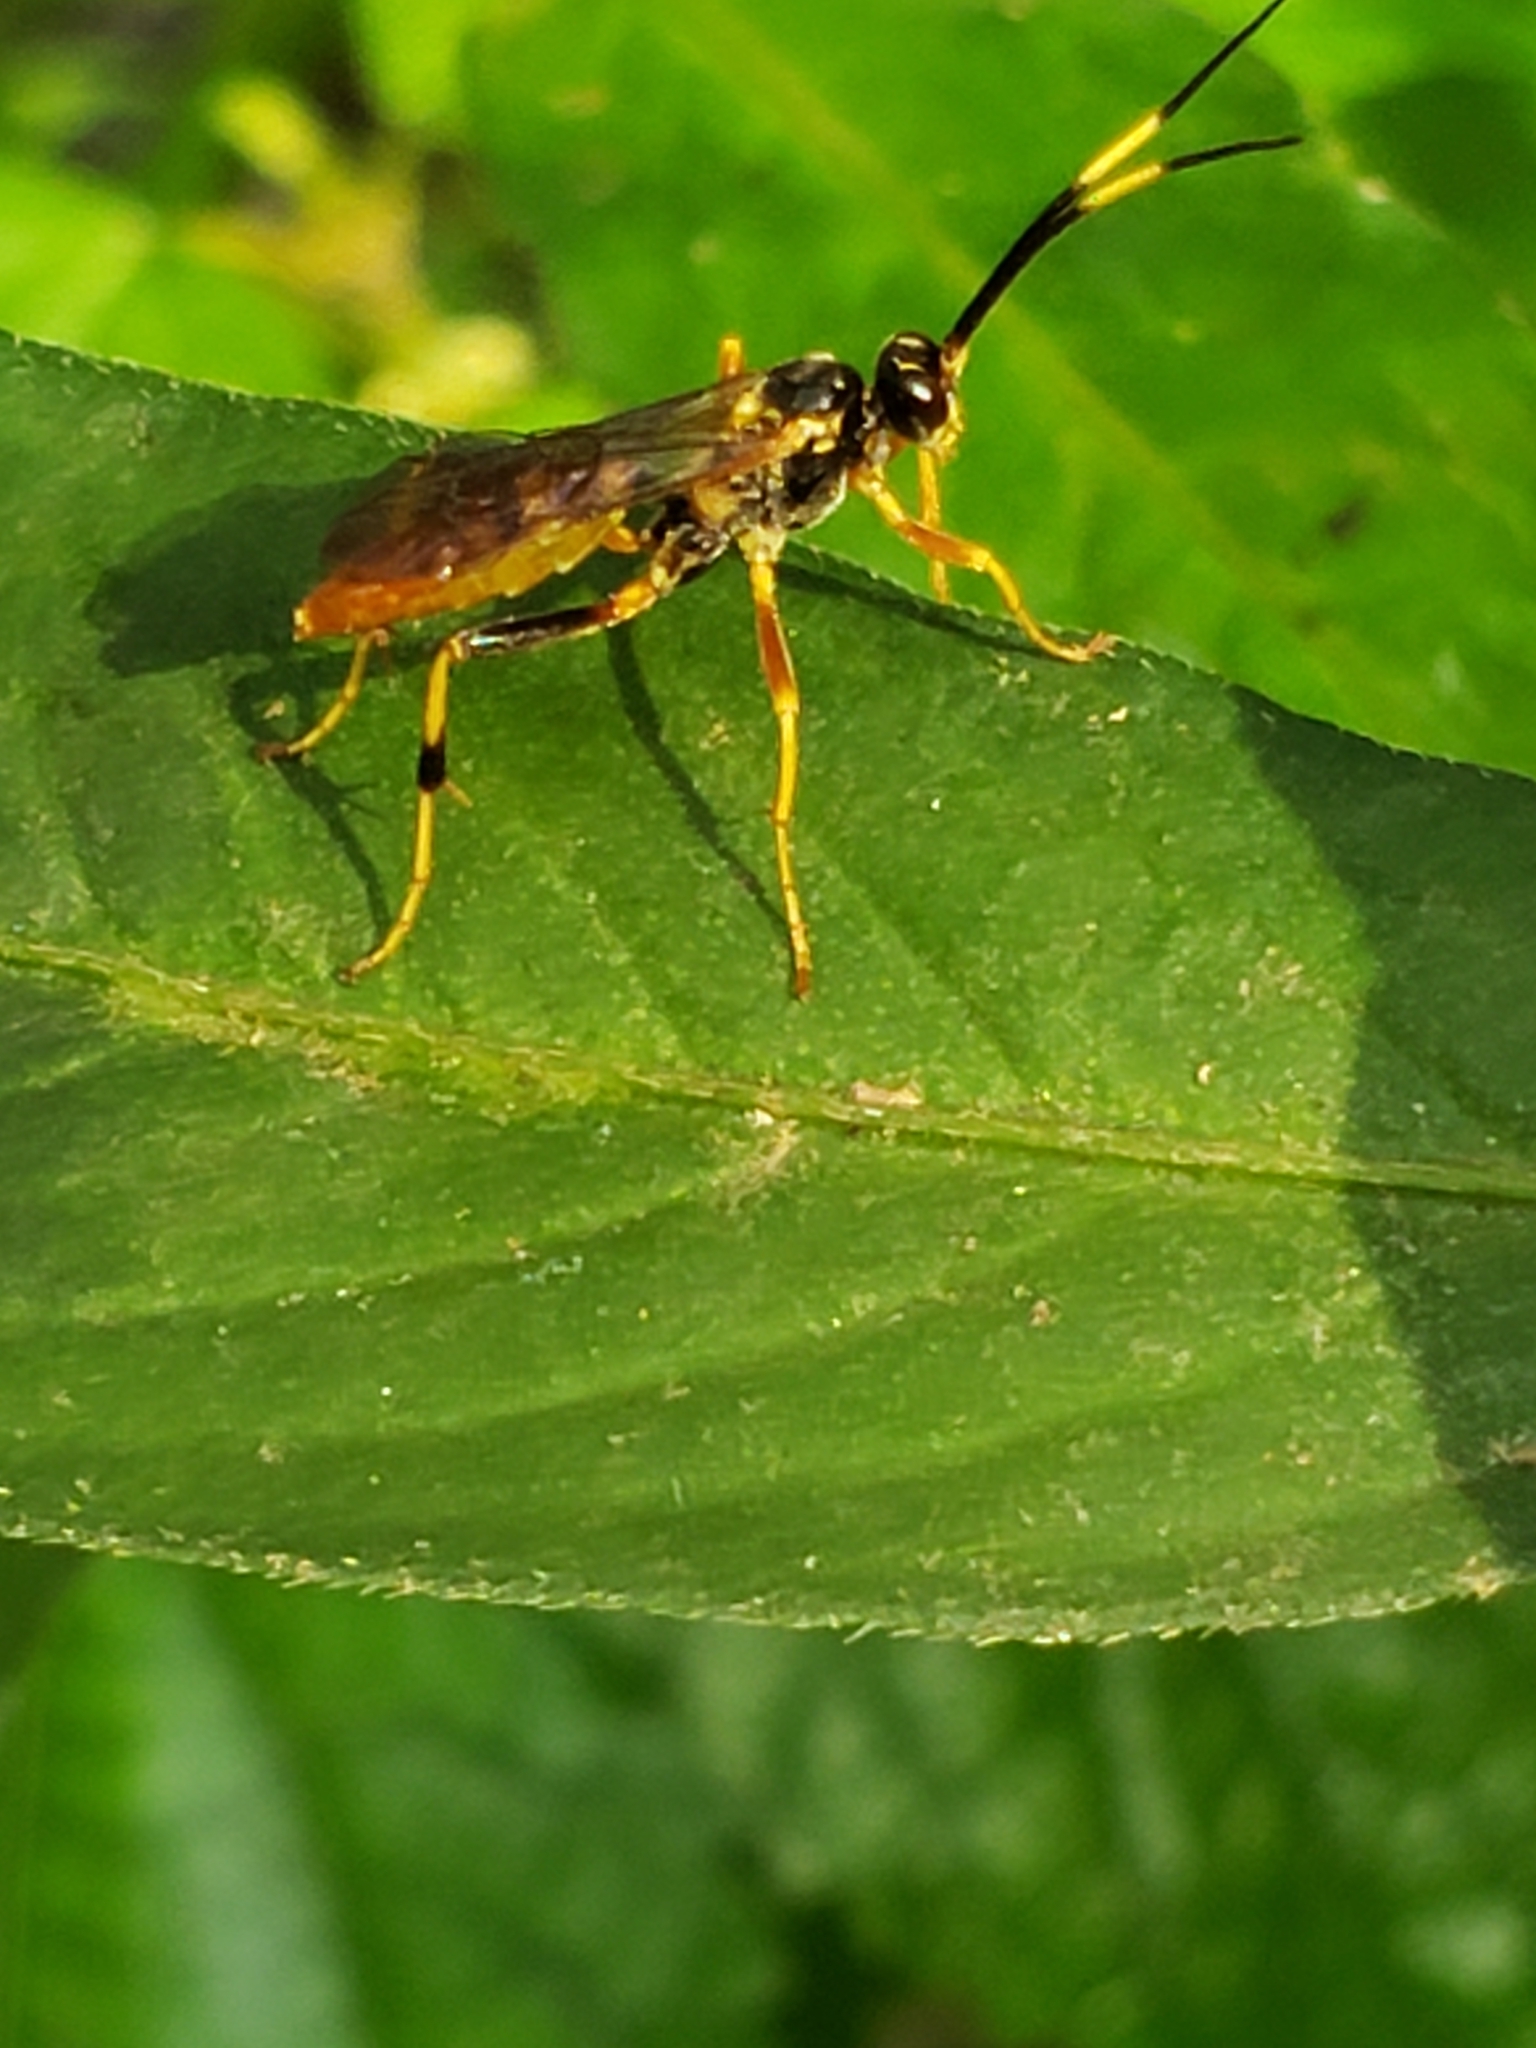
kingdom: Animalia
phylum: Arthropoda
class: Insecta
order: Hymenoptera
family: Ichneumonidae
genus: Polytribax
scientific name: Polytribax contiguus
